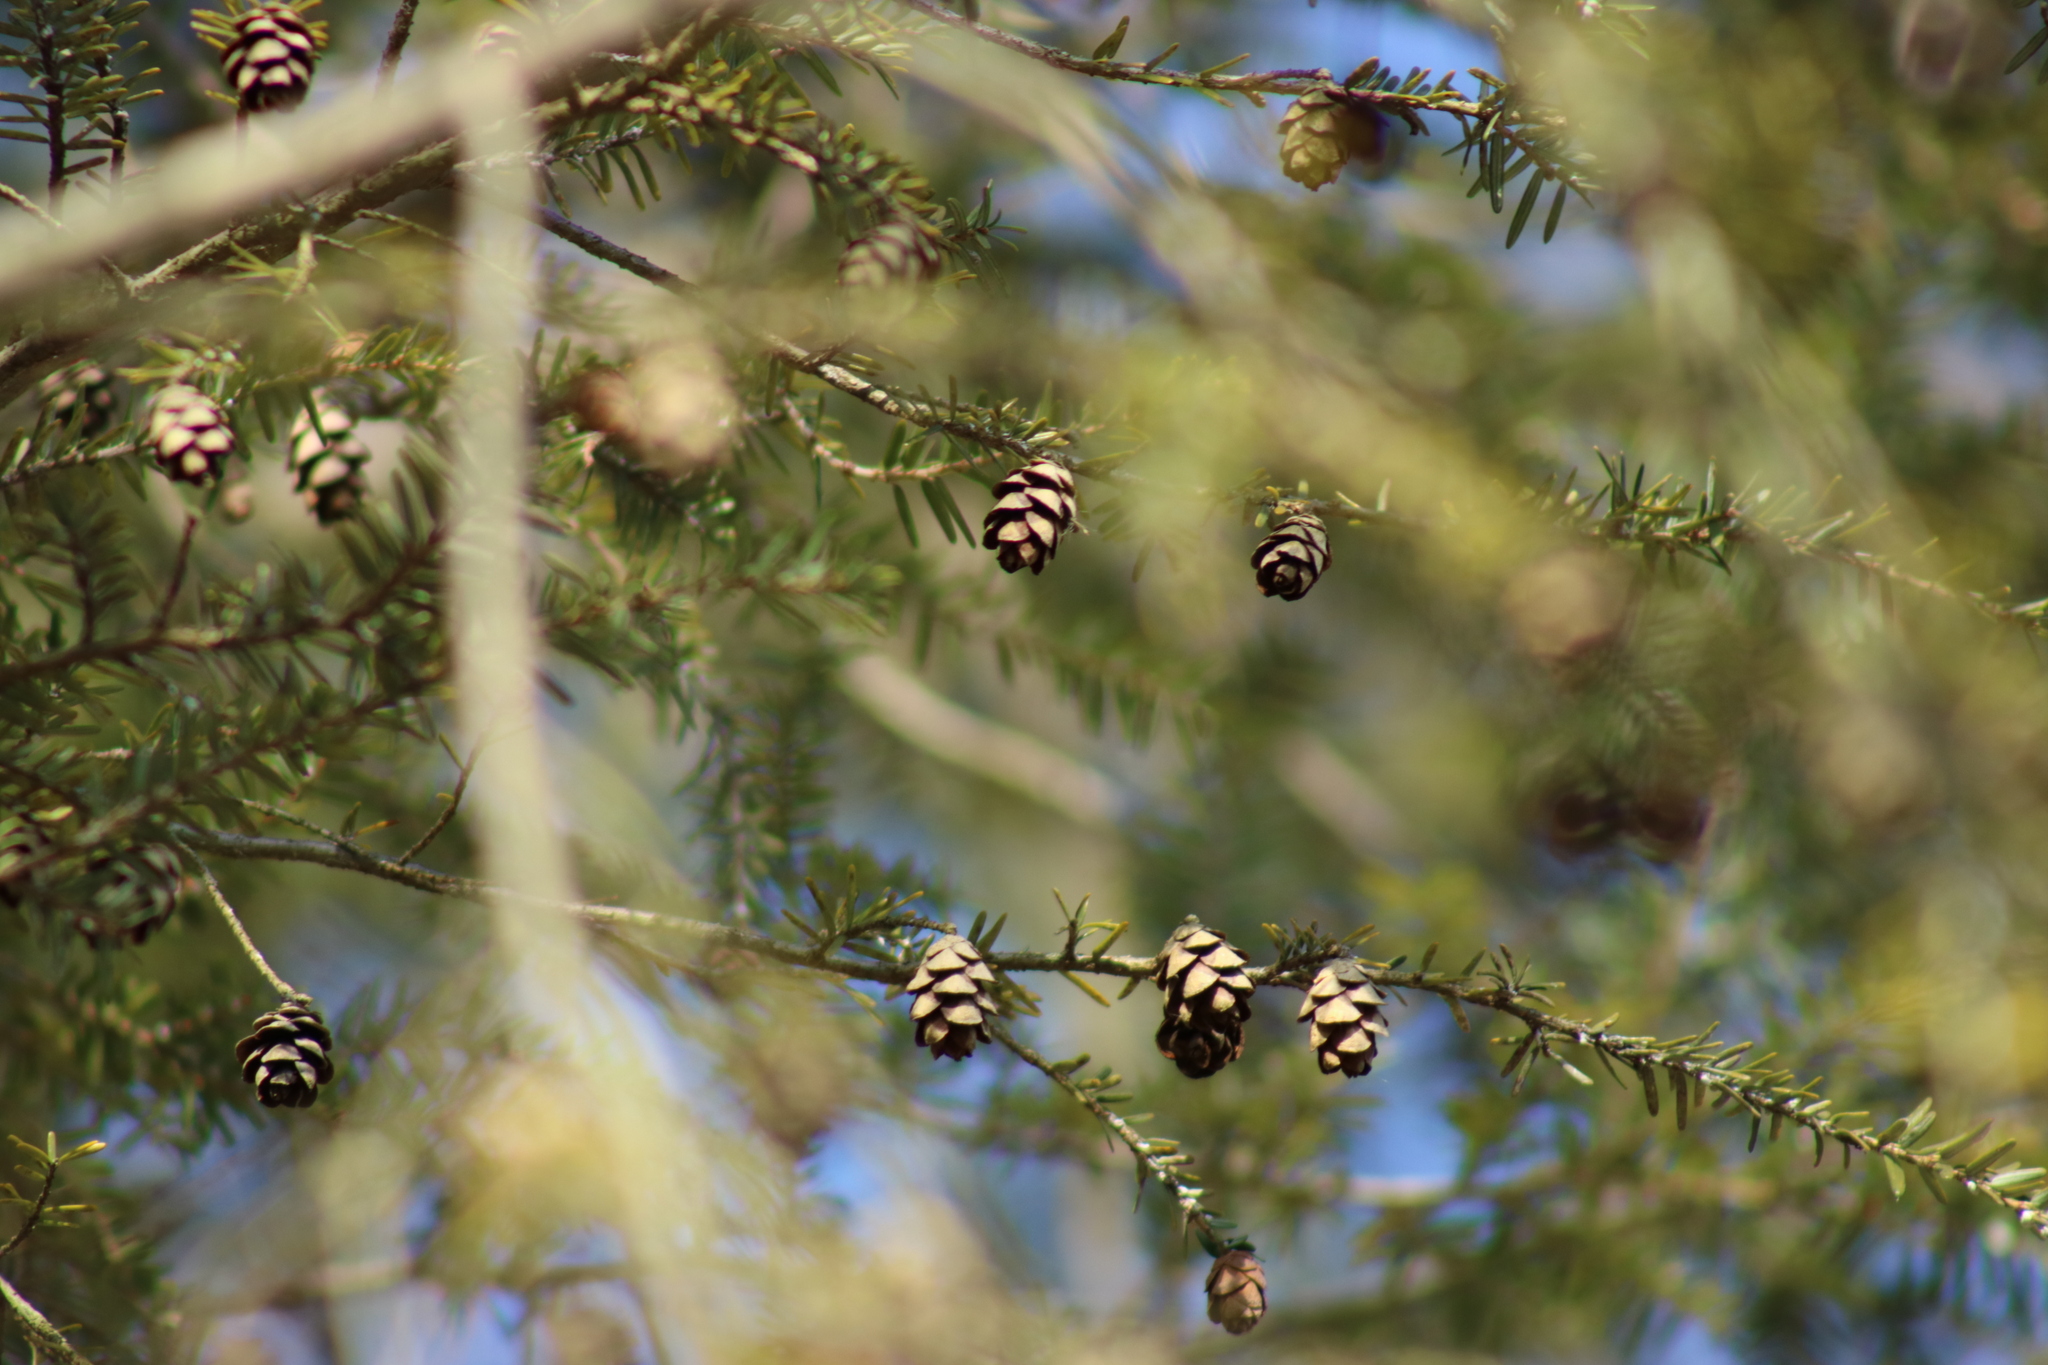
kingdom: Plantae
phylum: Tracheophyta
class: Pinopsida
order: Pinales
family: Pinaceae
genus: Tsuga
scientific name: Tsuga canadensis
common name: Eastern hemlock
